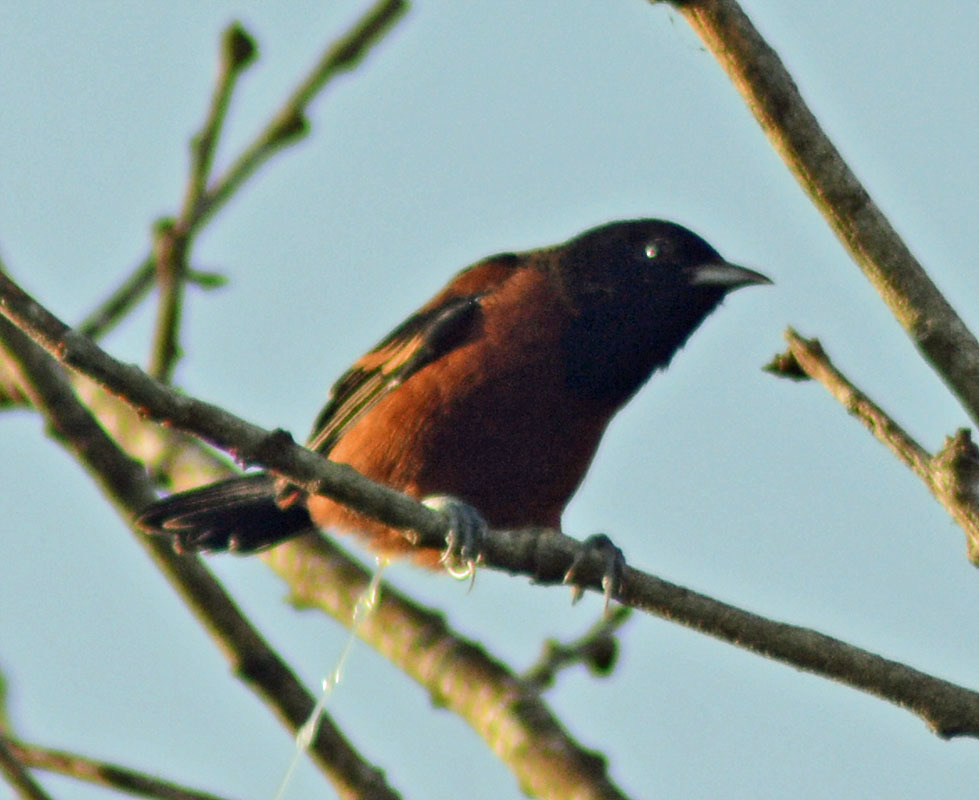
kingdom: Animalia
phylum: Chordata
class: Aves
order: Passeriformes
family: Icteridae
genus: Icterus
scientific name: Icterus spurius
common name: Orchard oriole
